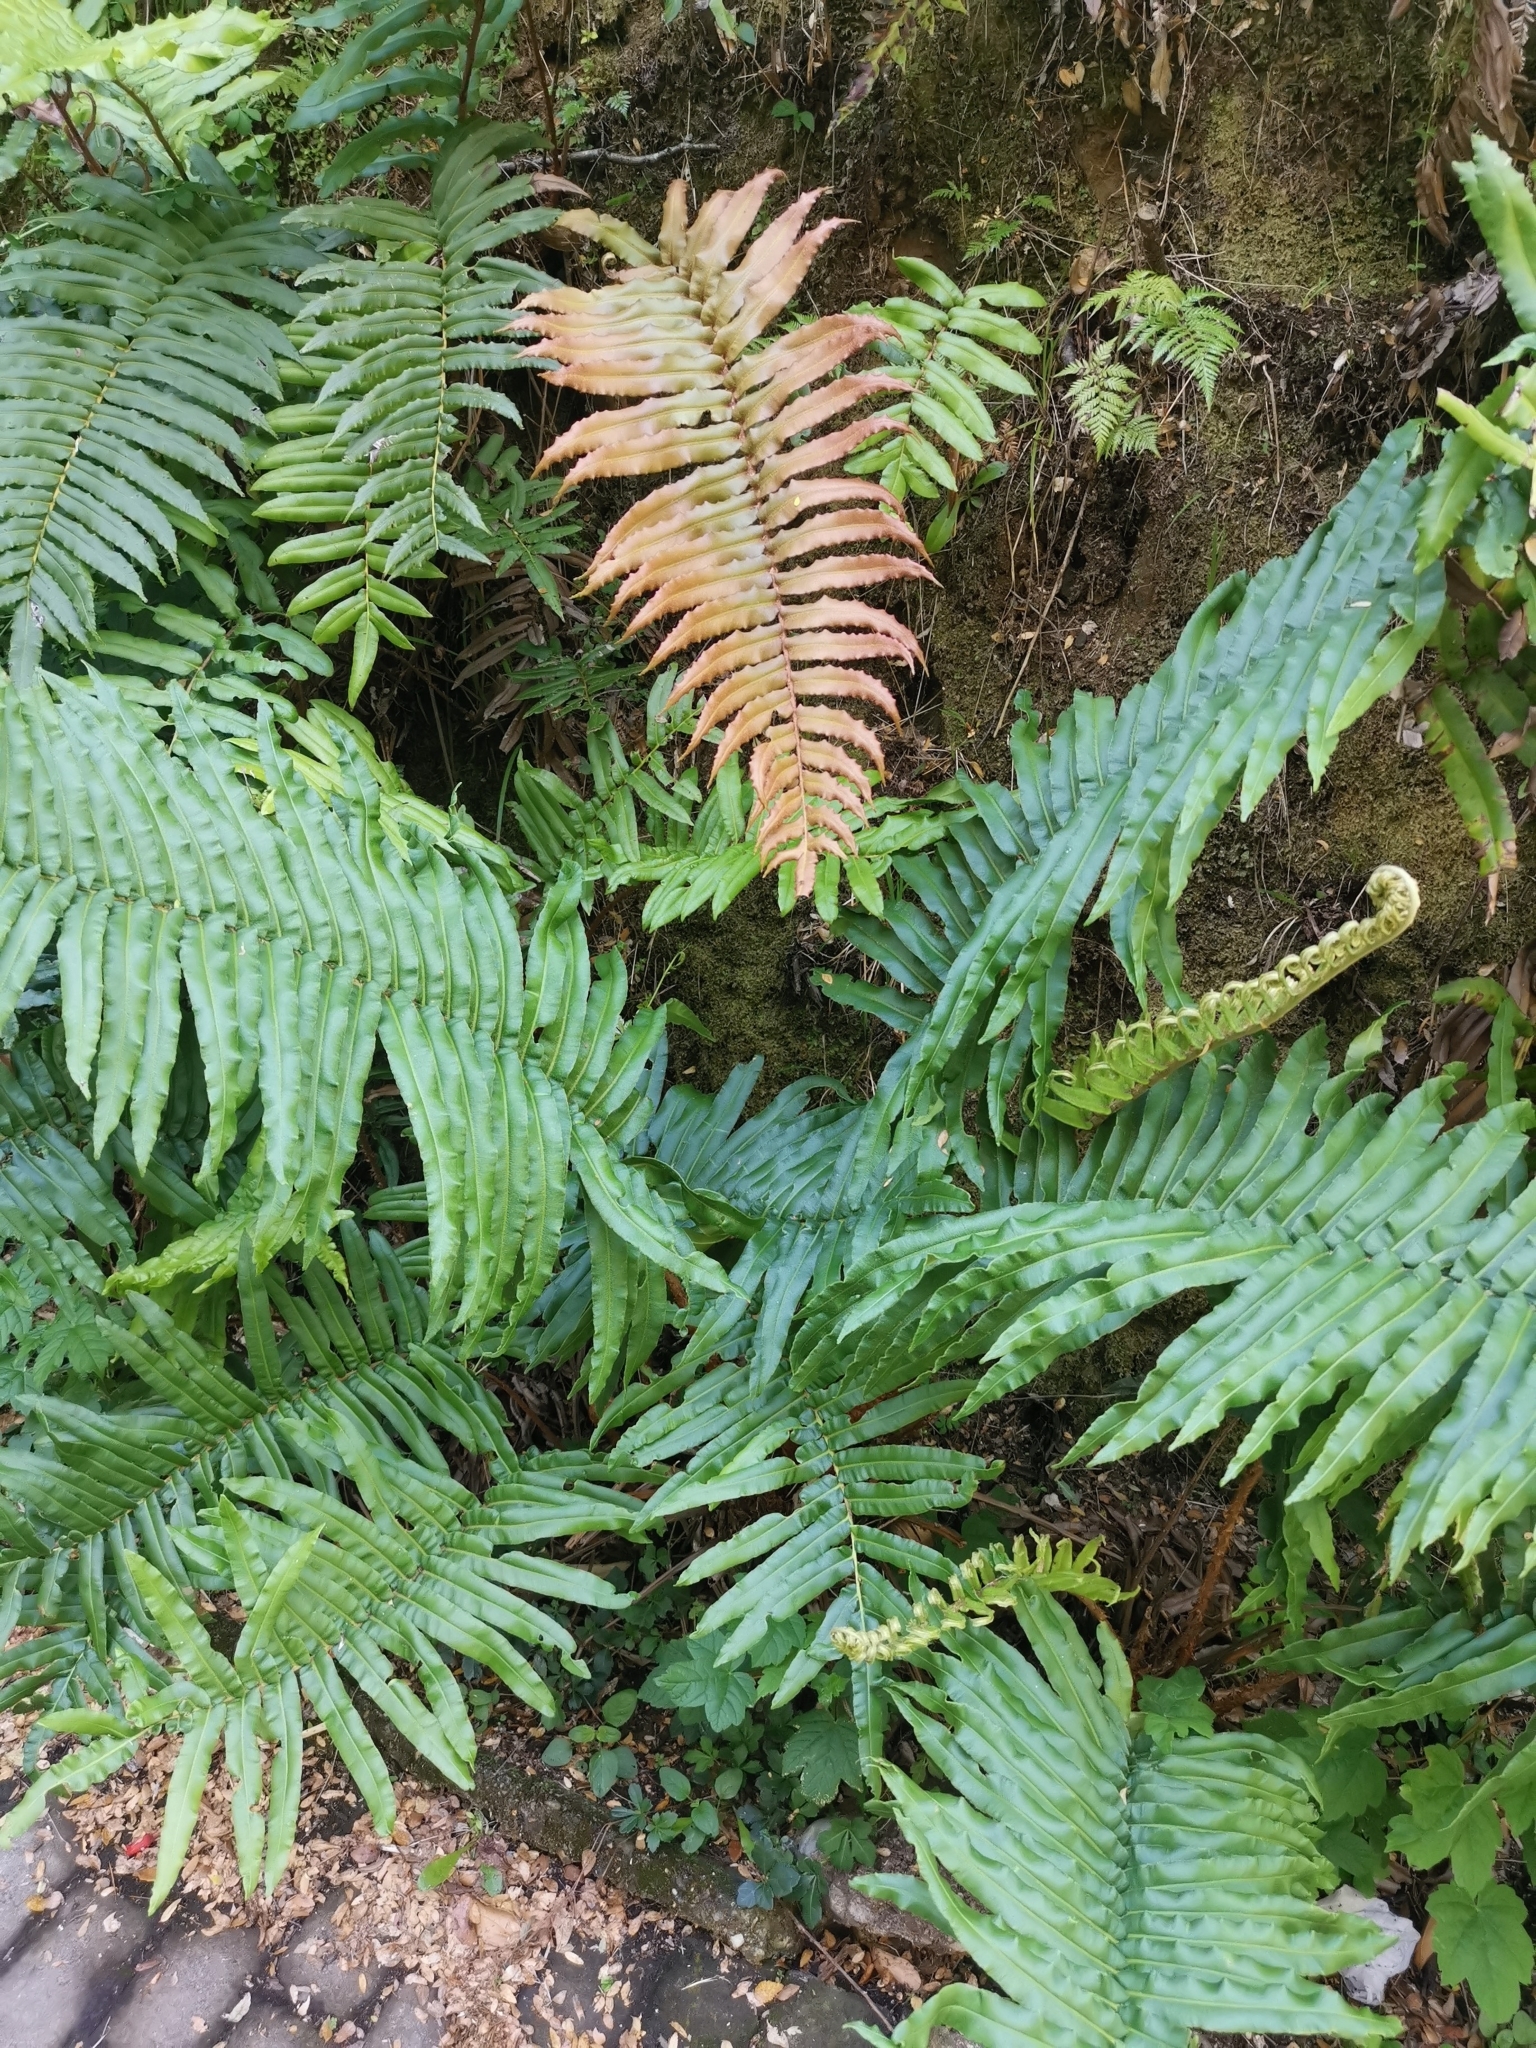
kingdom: Plantae
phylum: Tracheophyta
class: Polypodiopsida
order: Polypodiales
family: Blechnaceae
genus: Parablechnum
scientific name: Parablechnum chilense
